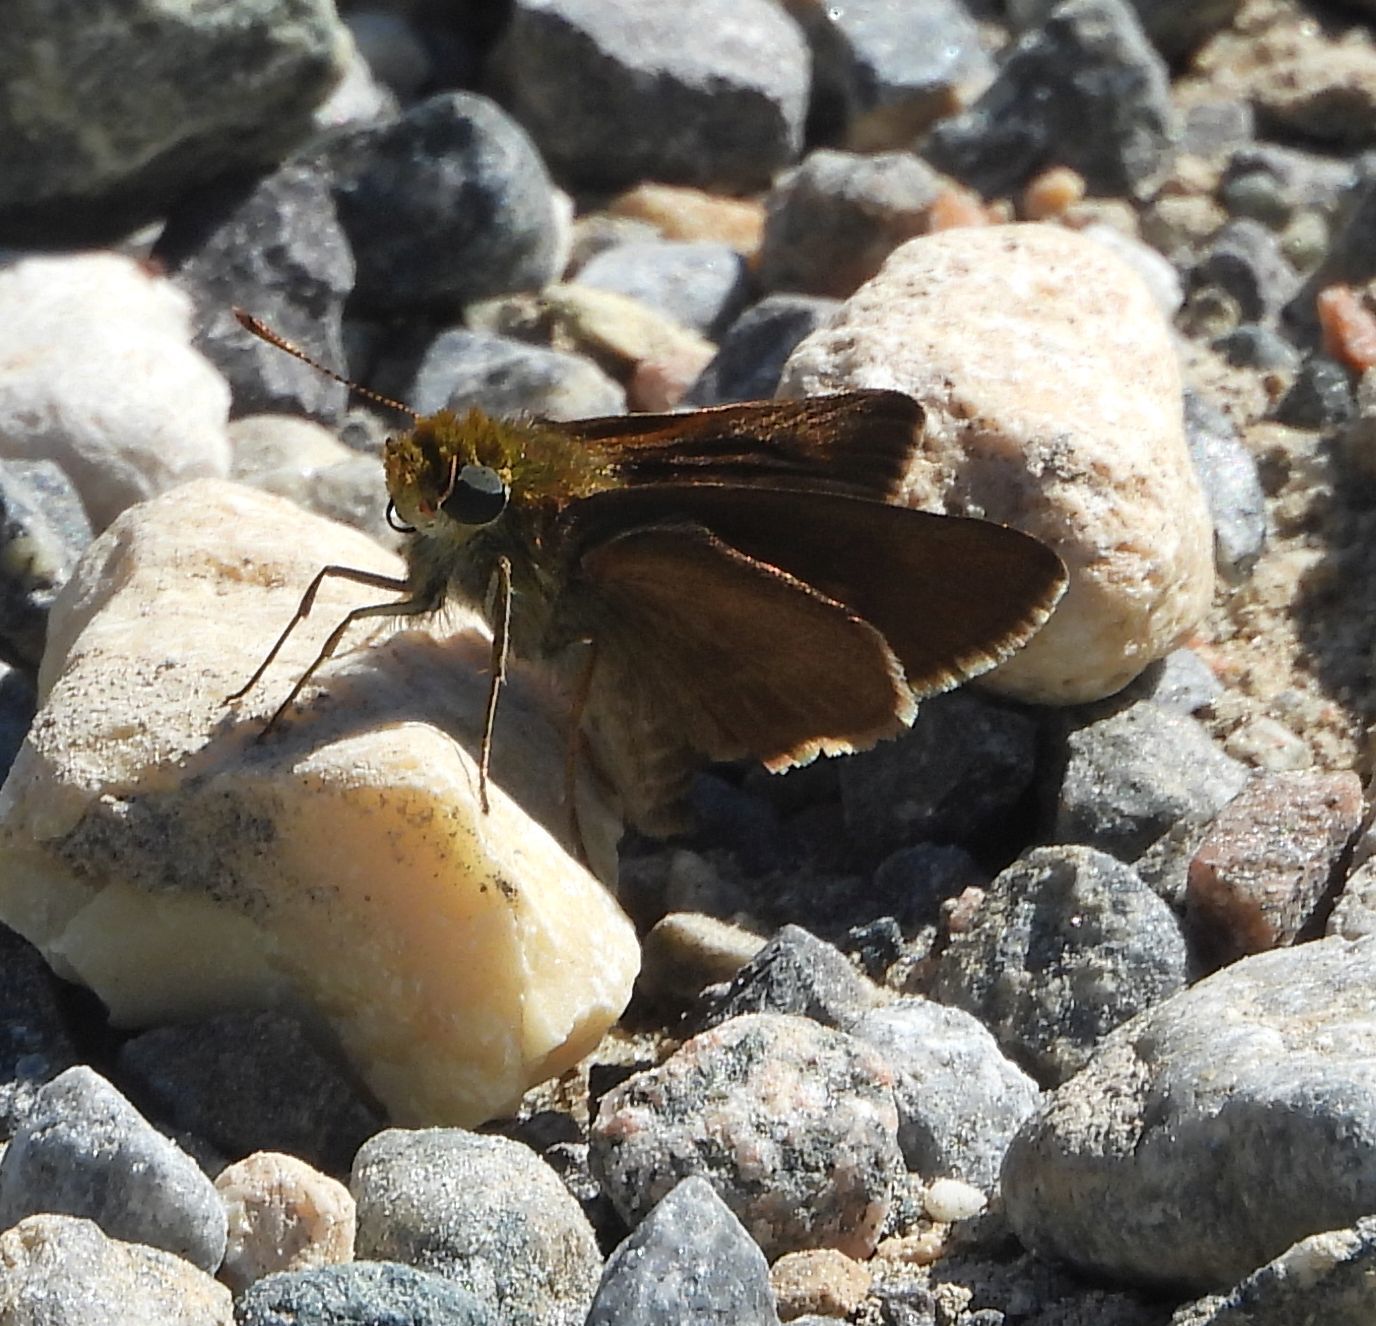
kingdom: Animalia
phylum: Arthropoda
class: Insecta
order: Lepidoptera
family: Hesperiidae
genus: Euphyes
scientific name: Euphyes vestris
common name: Dun skipper
